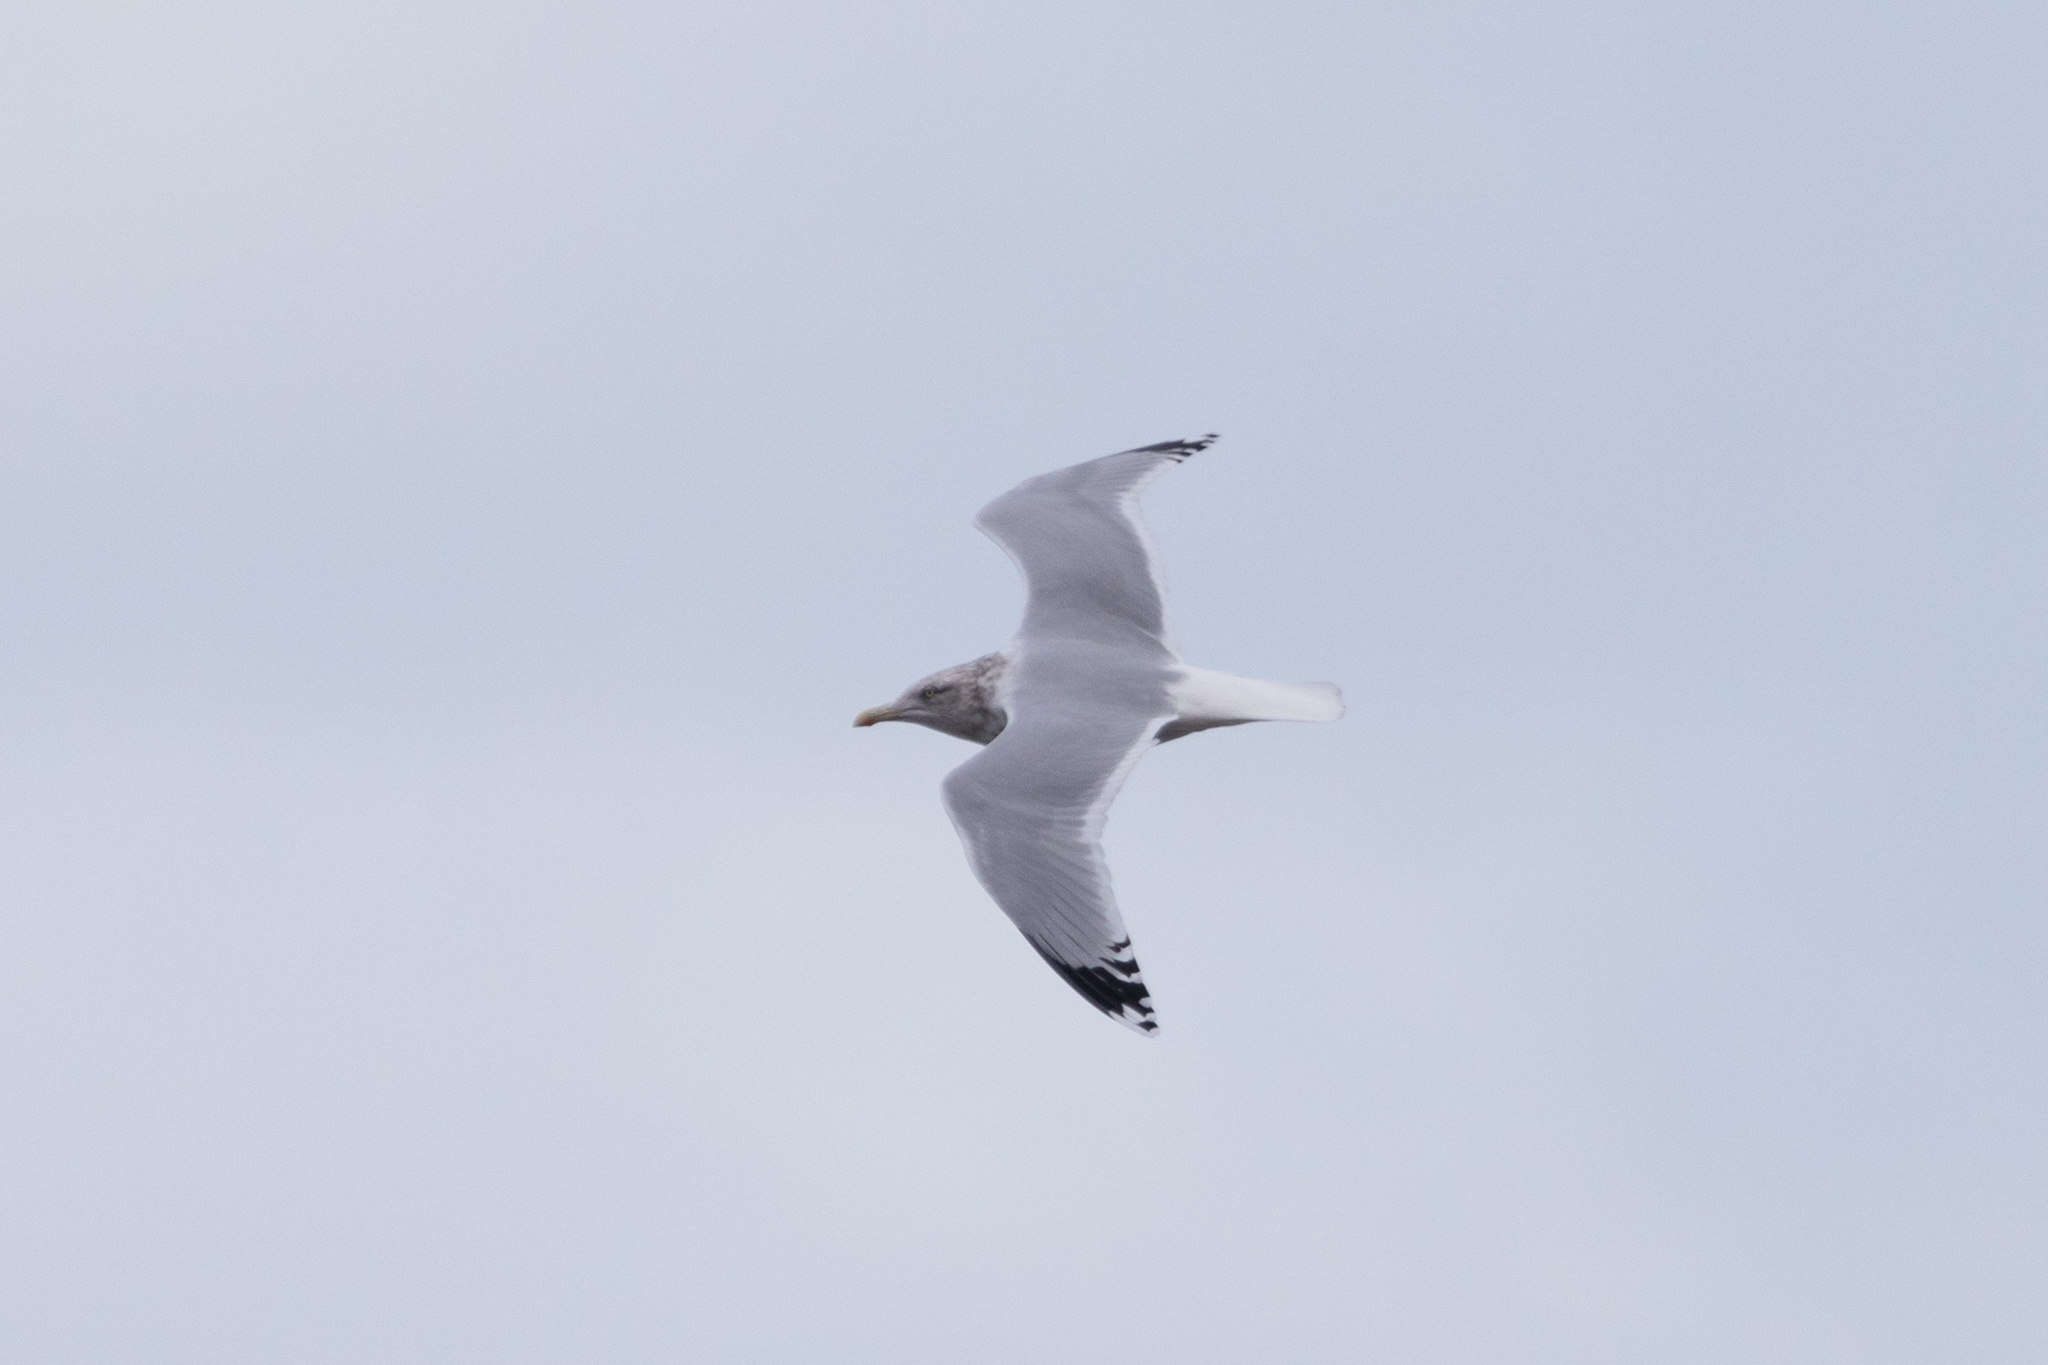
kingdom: Animalia
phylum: Chordata
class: Aves
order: Charadriiformes
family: Laridae
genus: Larus
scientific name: Larus argentatus
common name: Herring gull
